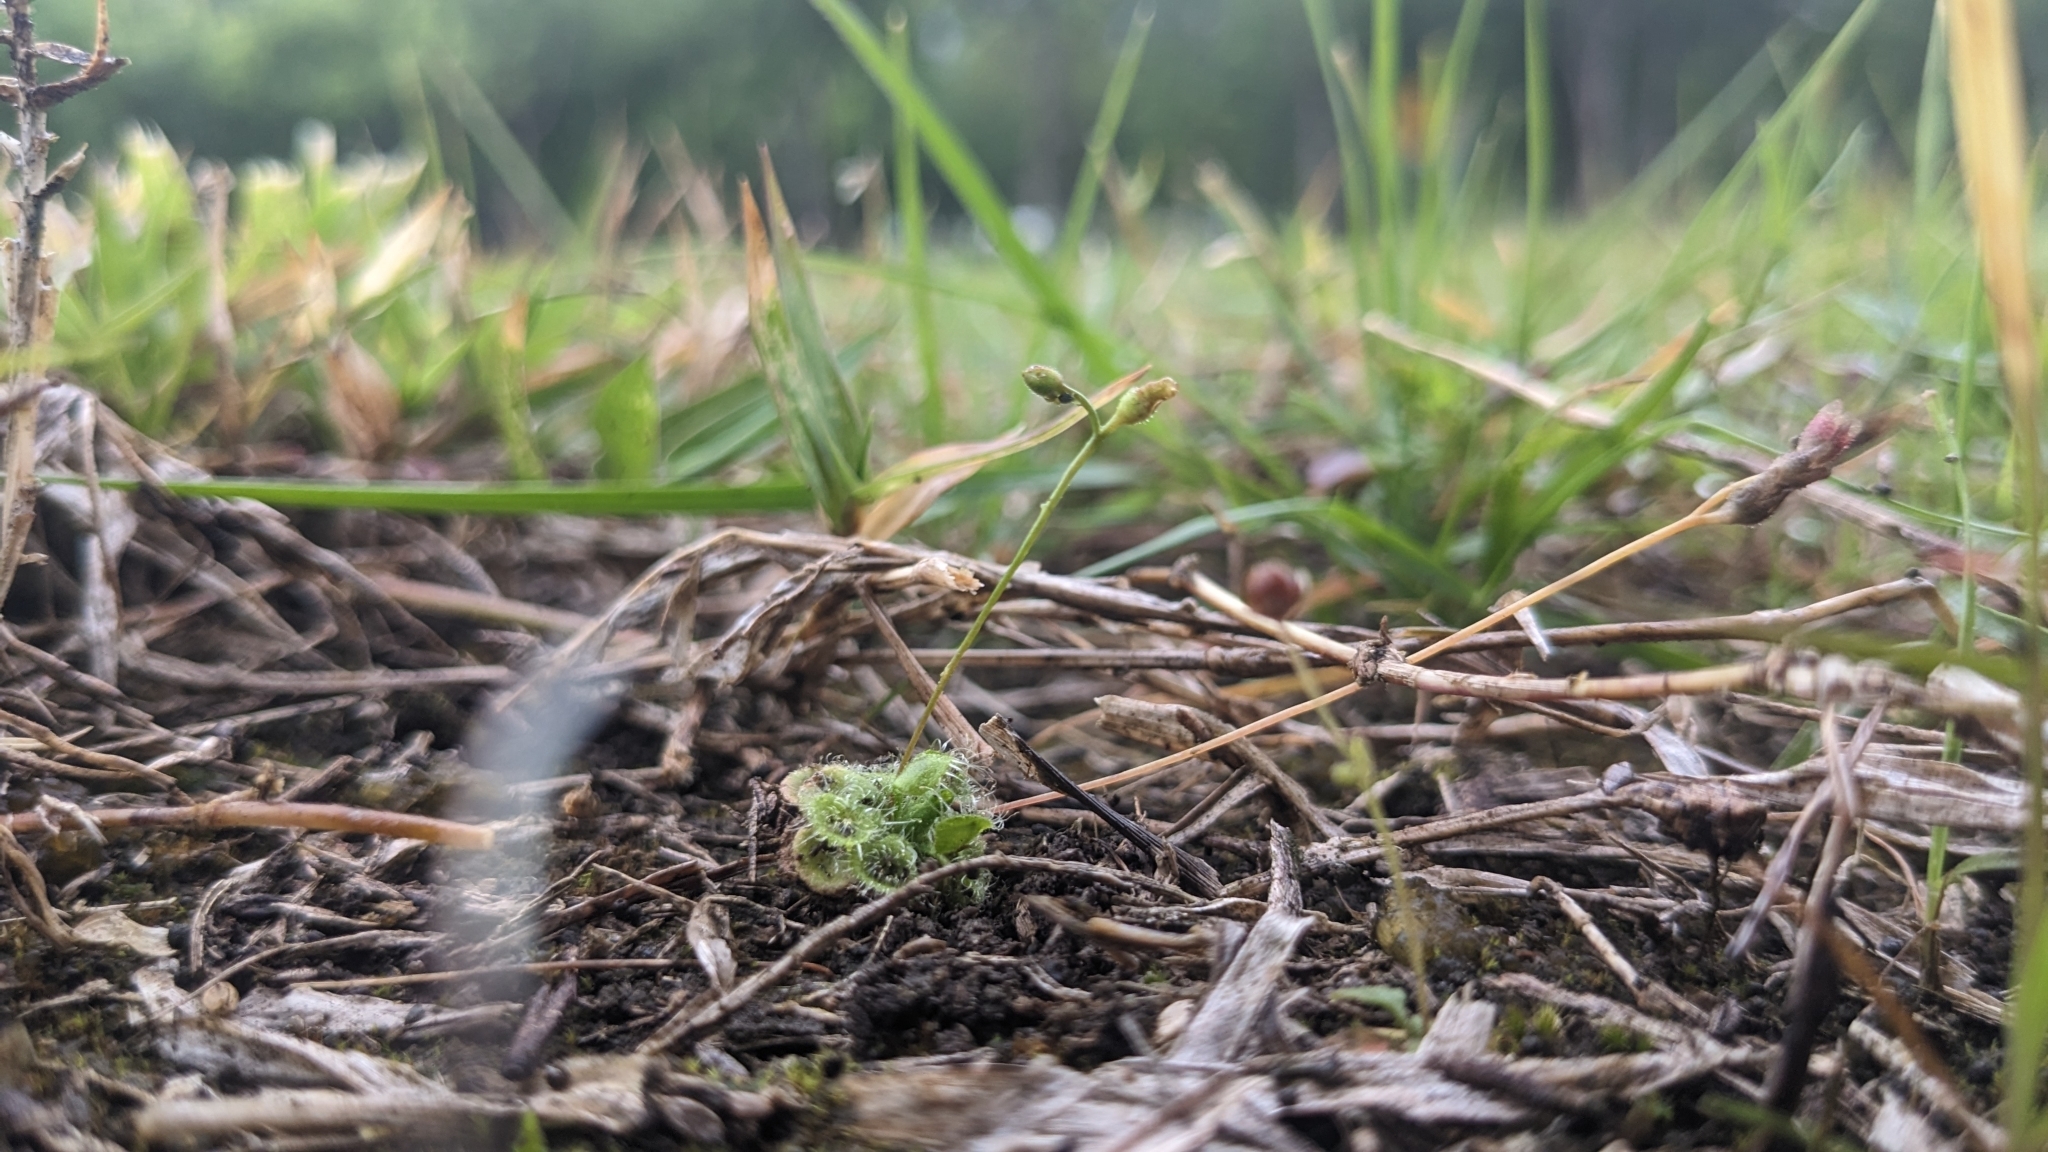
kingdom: Plantae
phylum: Tracheophyta
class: Magnoliopsida
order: Caryophyllales
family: Droseraceae
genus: Drosera
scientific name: Drosera spatulata
